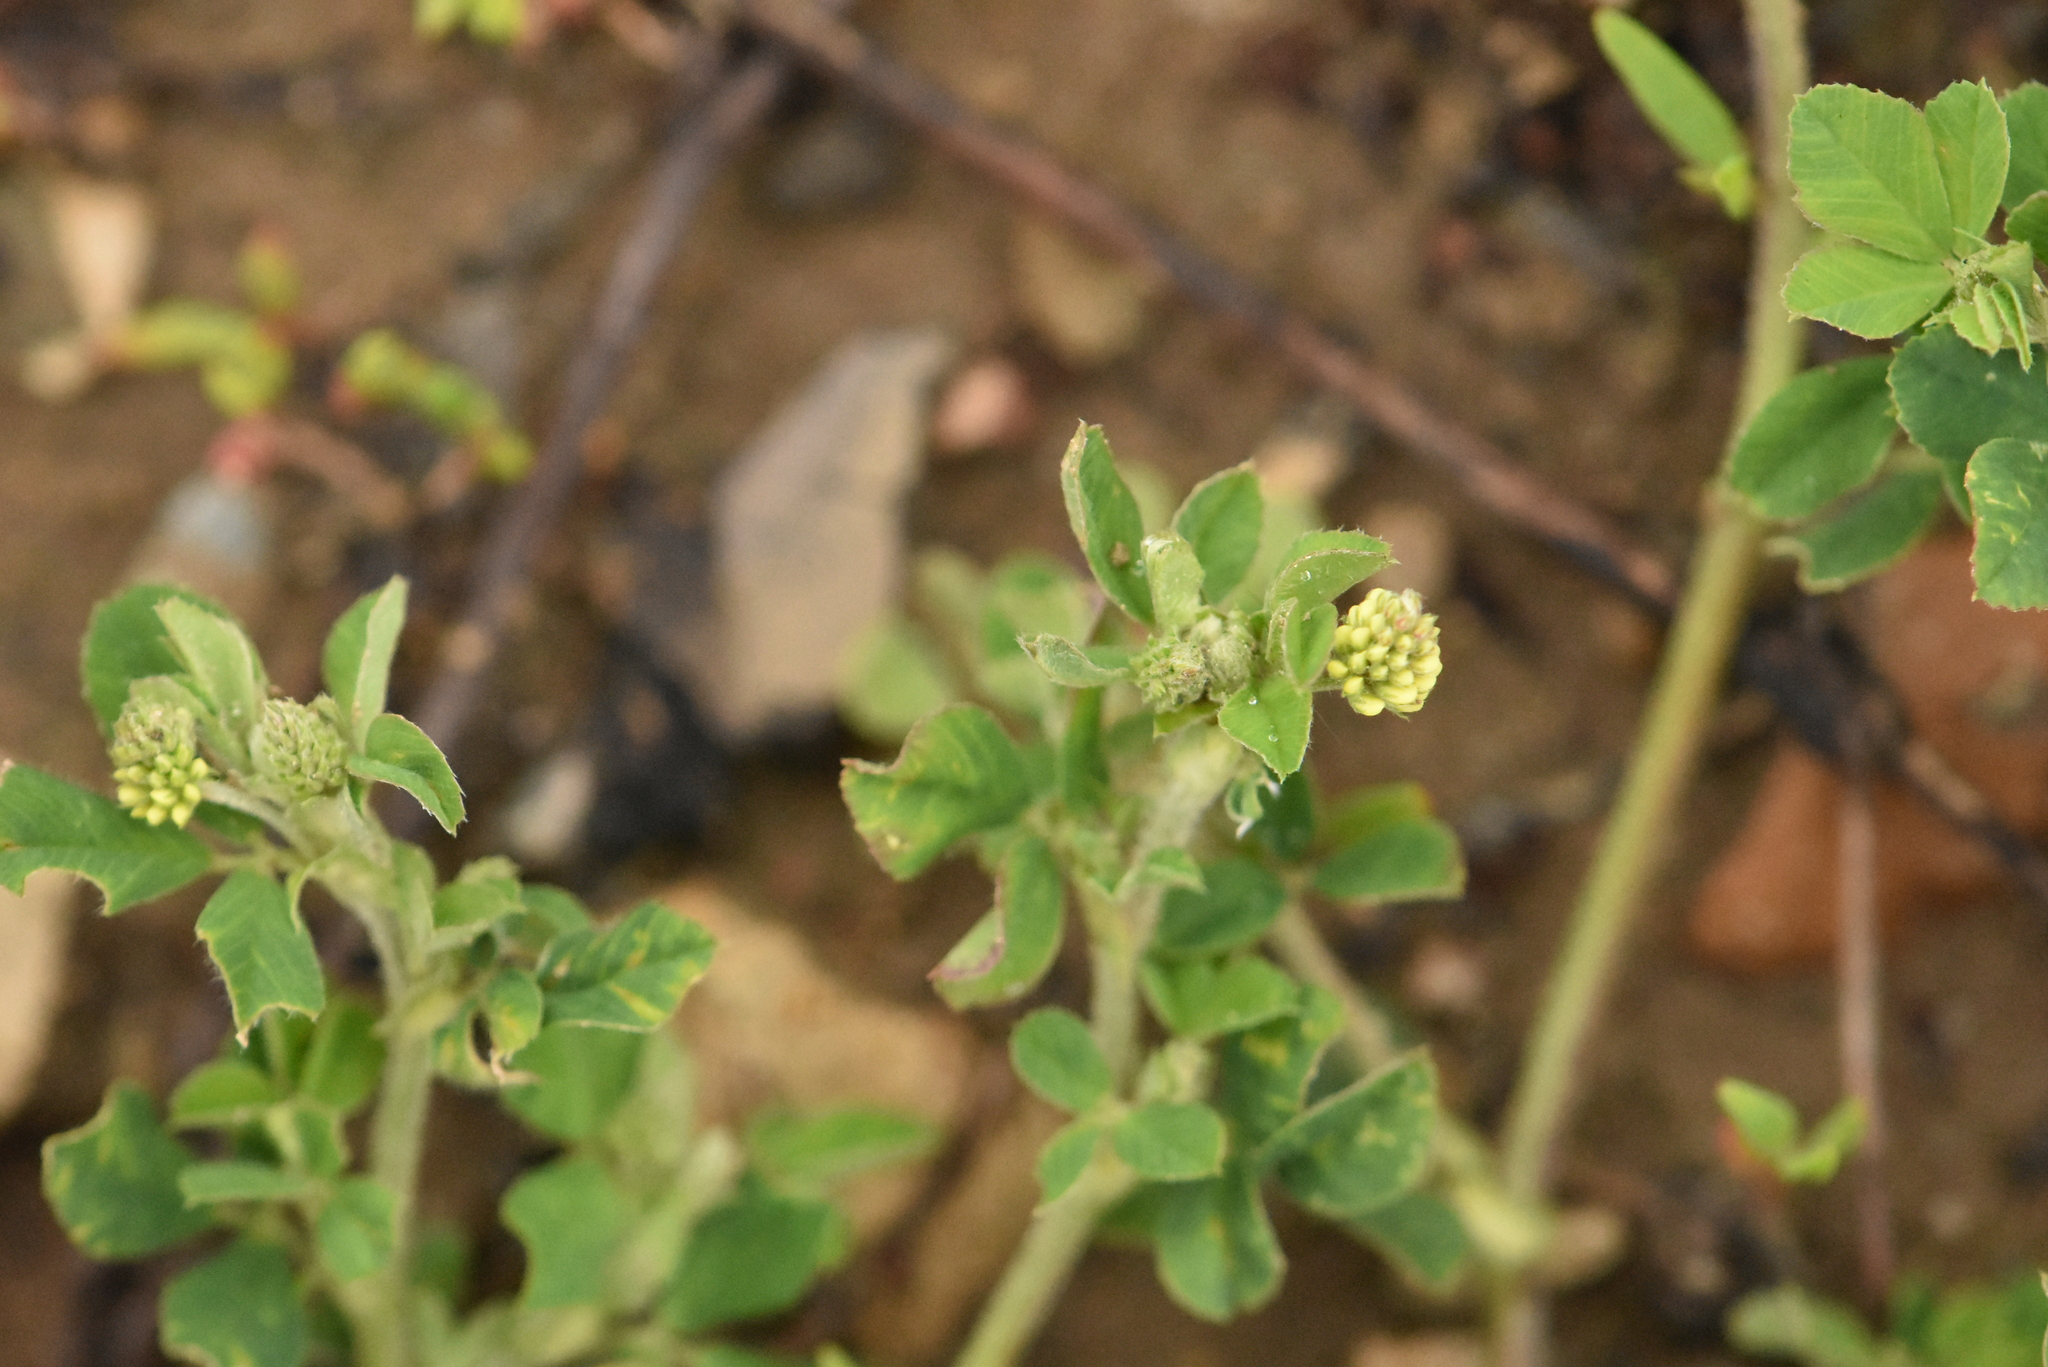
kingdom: Plantae
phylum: Tracheophyta
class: Magnoliopsida
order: Fabales
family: Fabaceae
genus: Medicago
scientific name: Medicago lupulina
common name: Black medick
